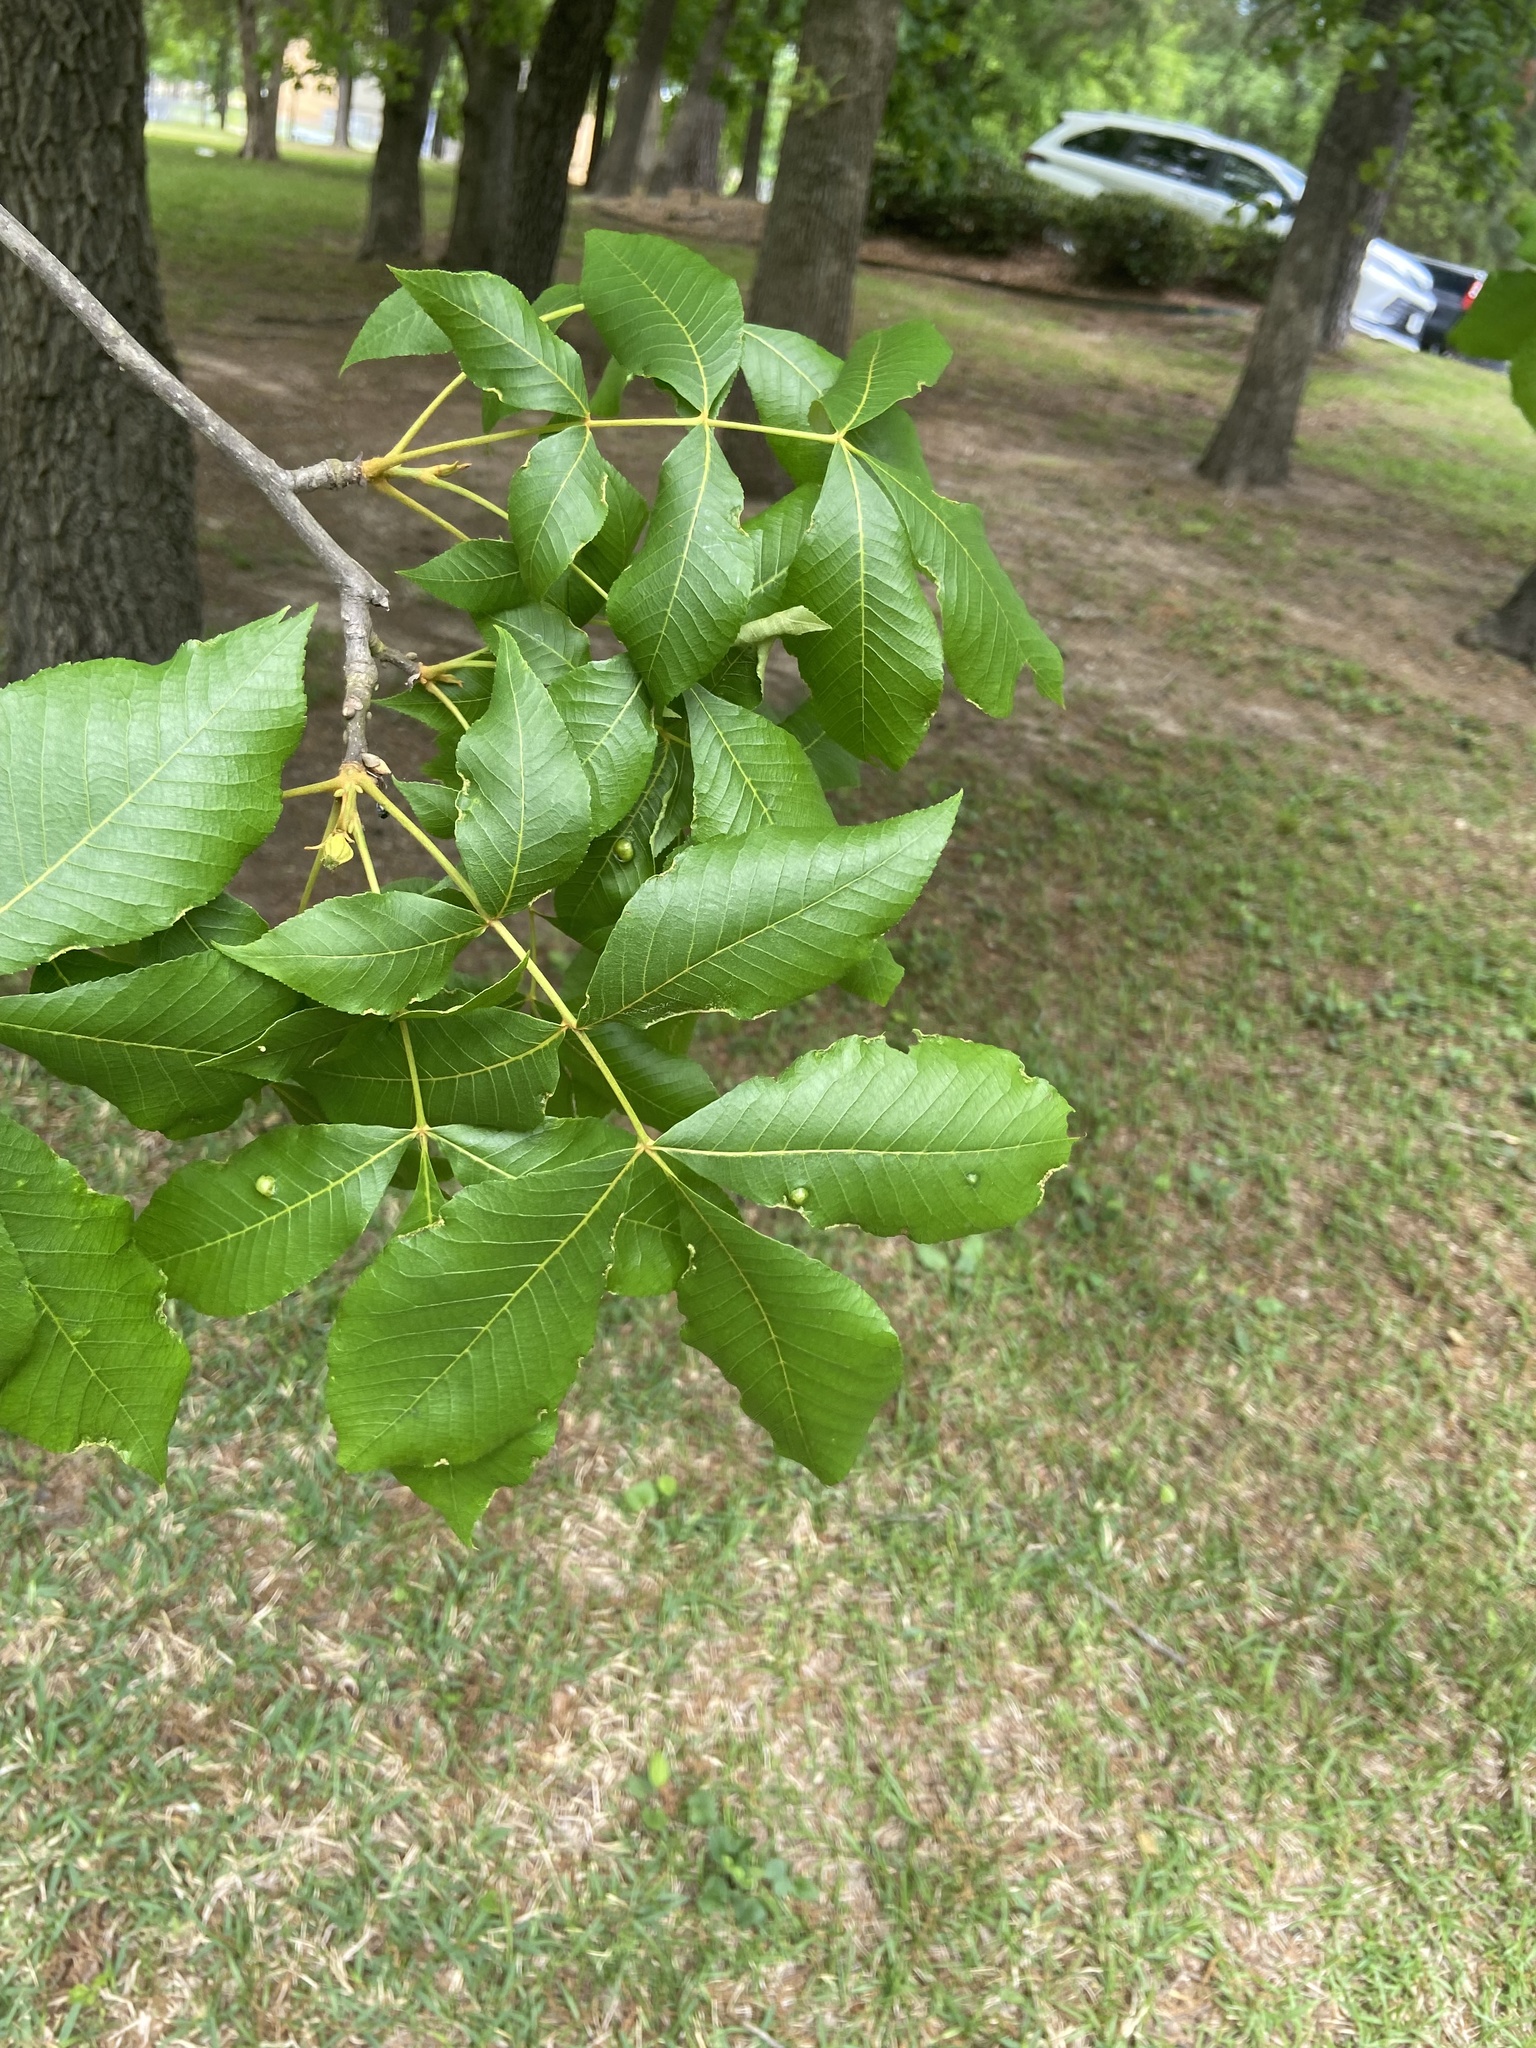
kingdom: Animalia
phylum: Arthropoda
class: Insecta
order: Hemiptera
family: Phylloxeridae
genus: Phylloxera
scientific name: Phylloxera spinosa
